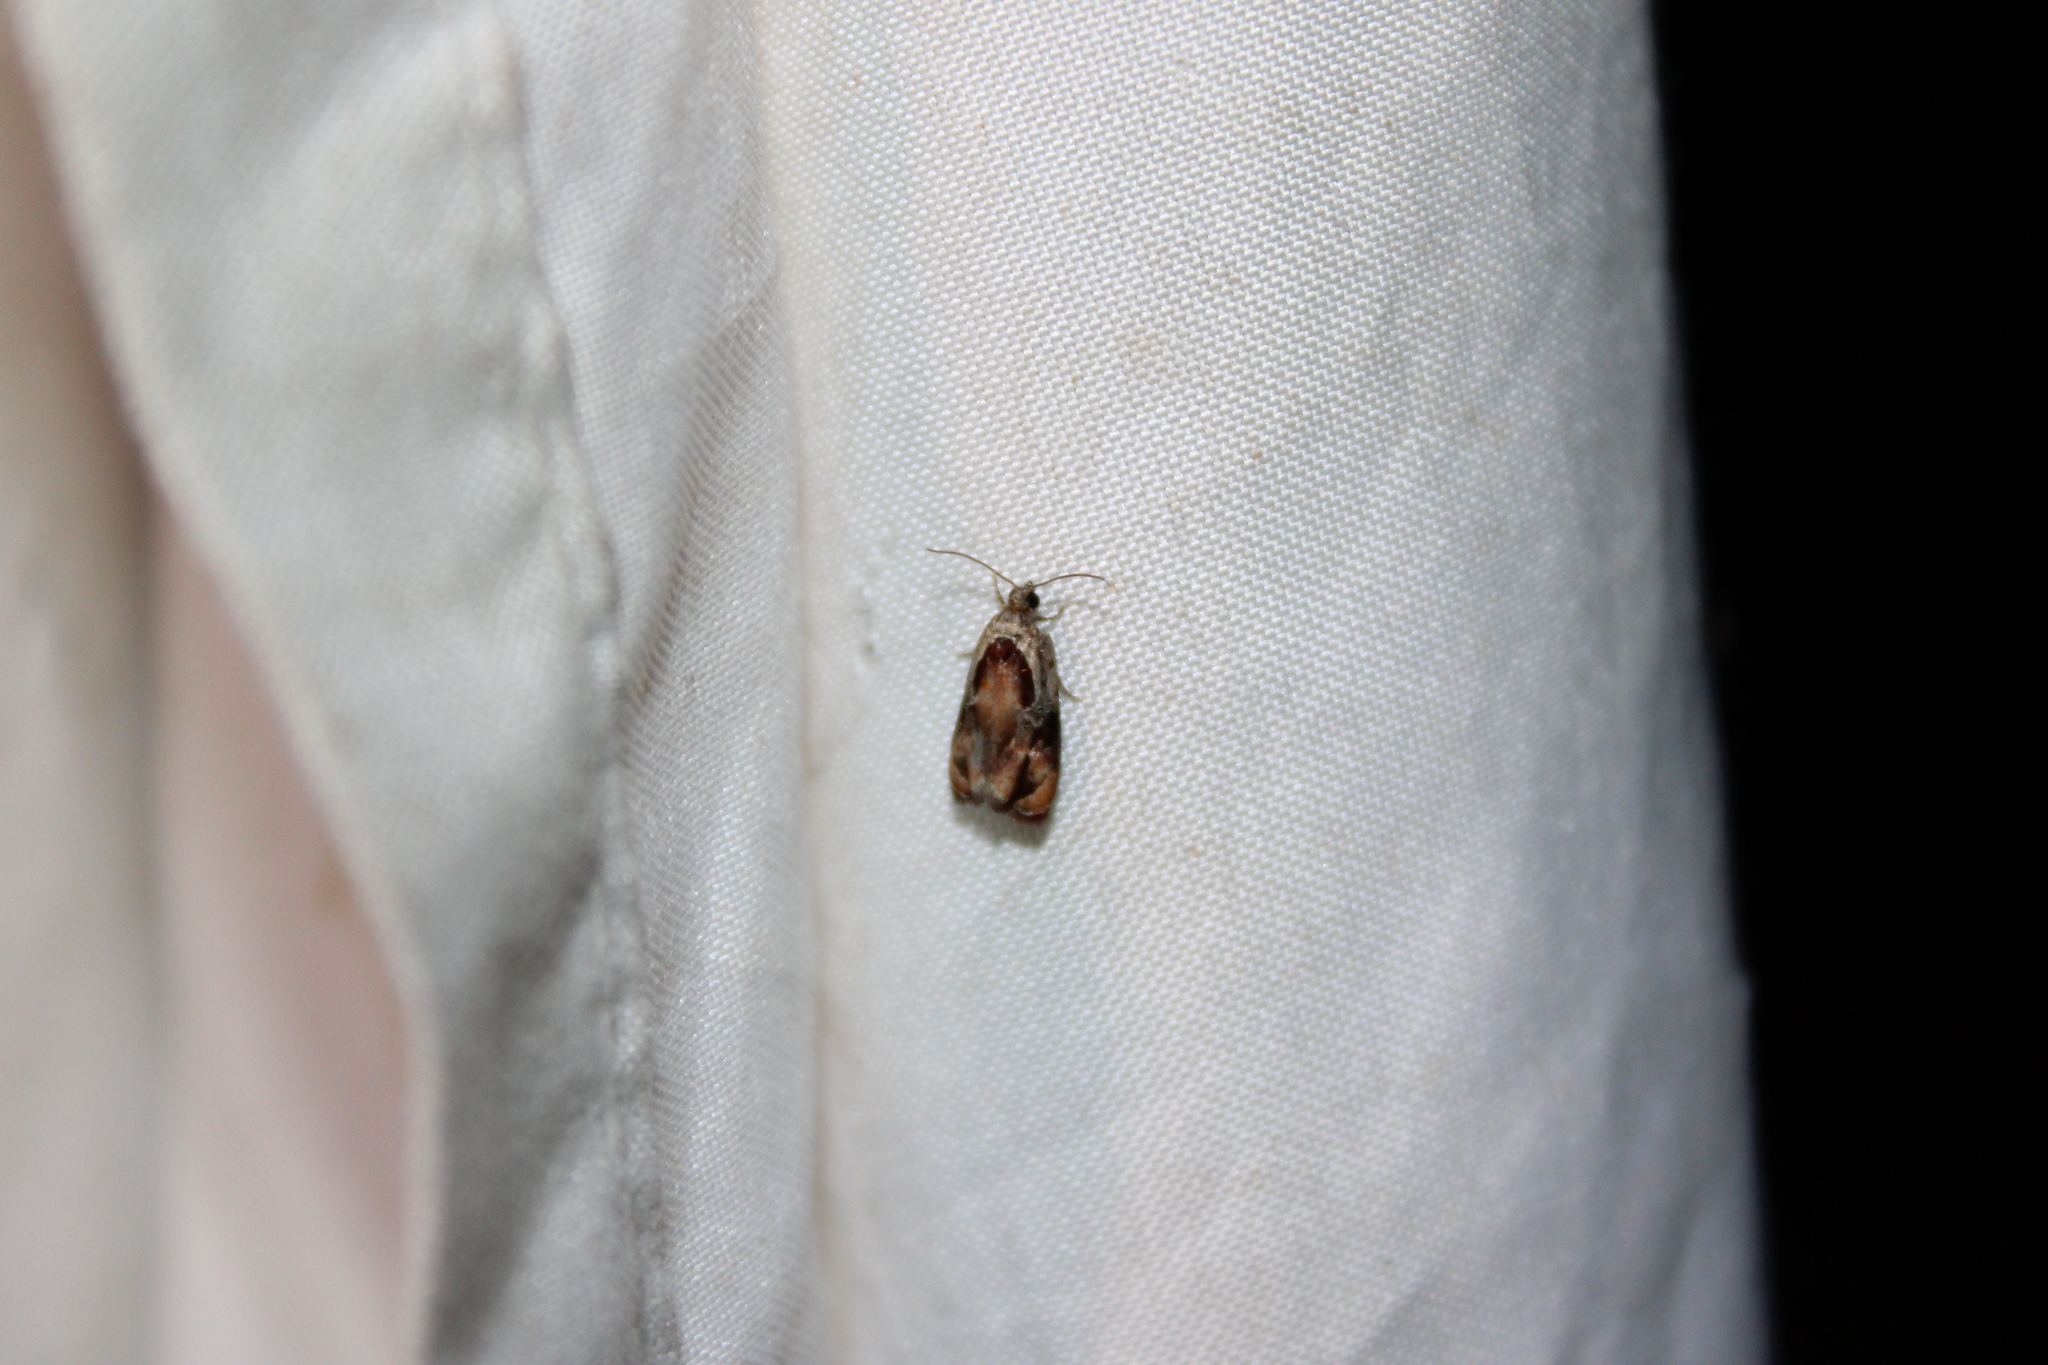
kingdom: Animalia
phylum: Arthropoda
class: Insecta
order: Lepidoptera
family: Tortricidae
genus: Zomaria
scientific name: Zomaria interruptolineana
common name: Broken-lined zomaria moth
